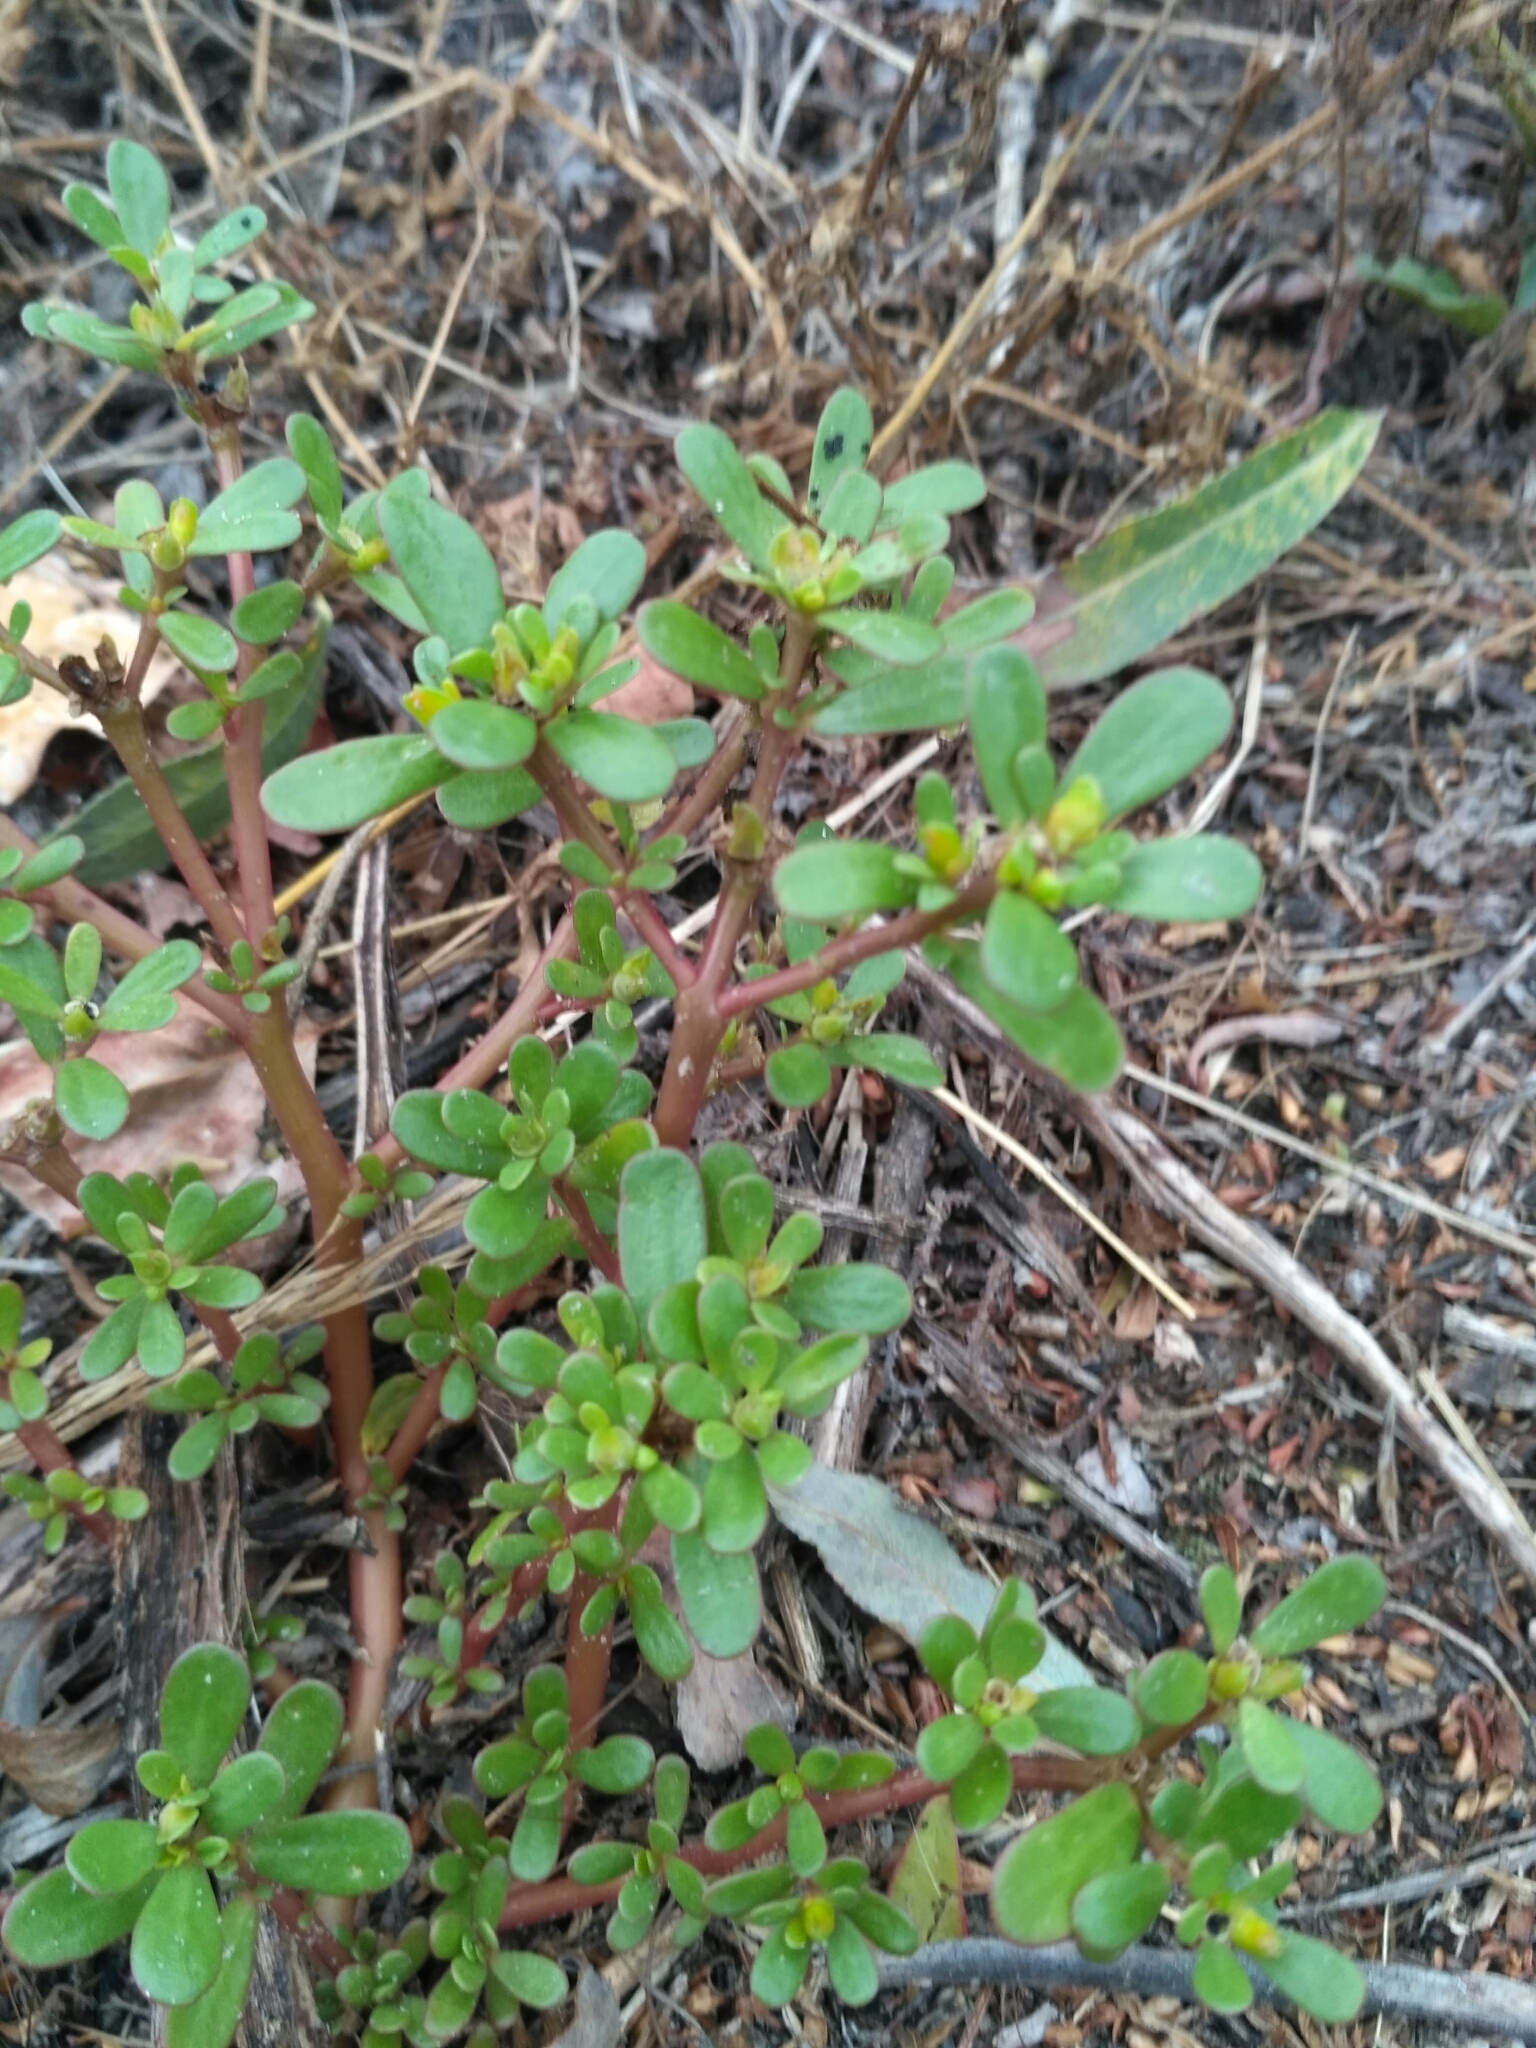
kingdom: Plantae
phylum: Tracheophyta
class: Magnoliopsida
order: Caryophyllales
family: Portulacaceae
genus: Portulaca
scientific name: Portulaca oleracea
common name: Common purslane
